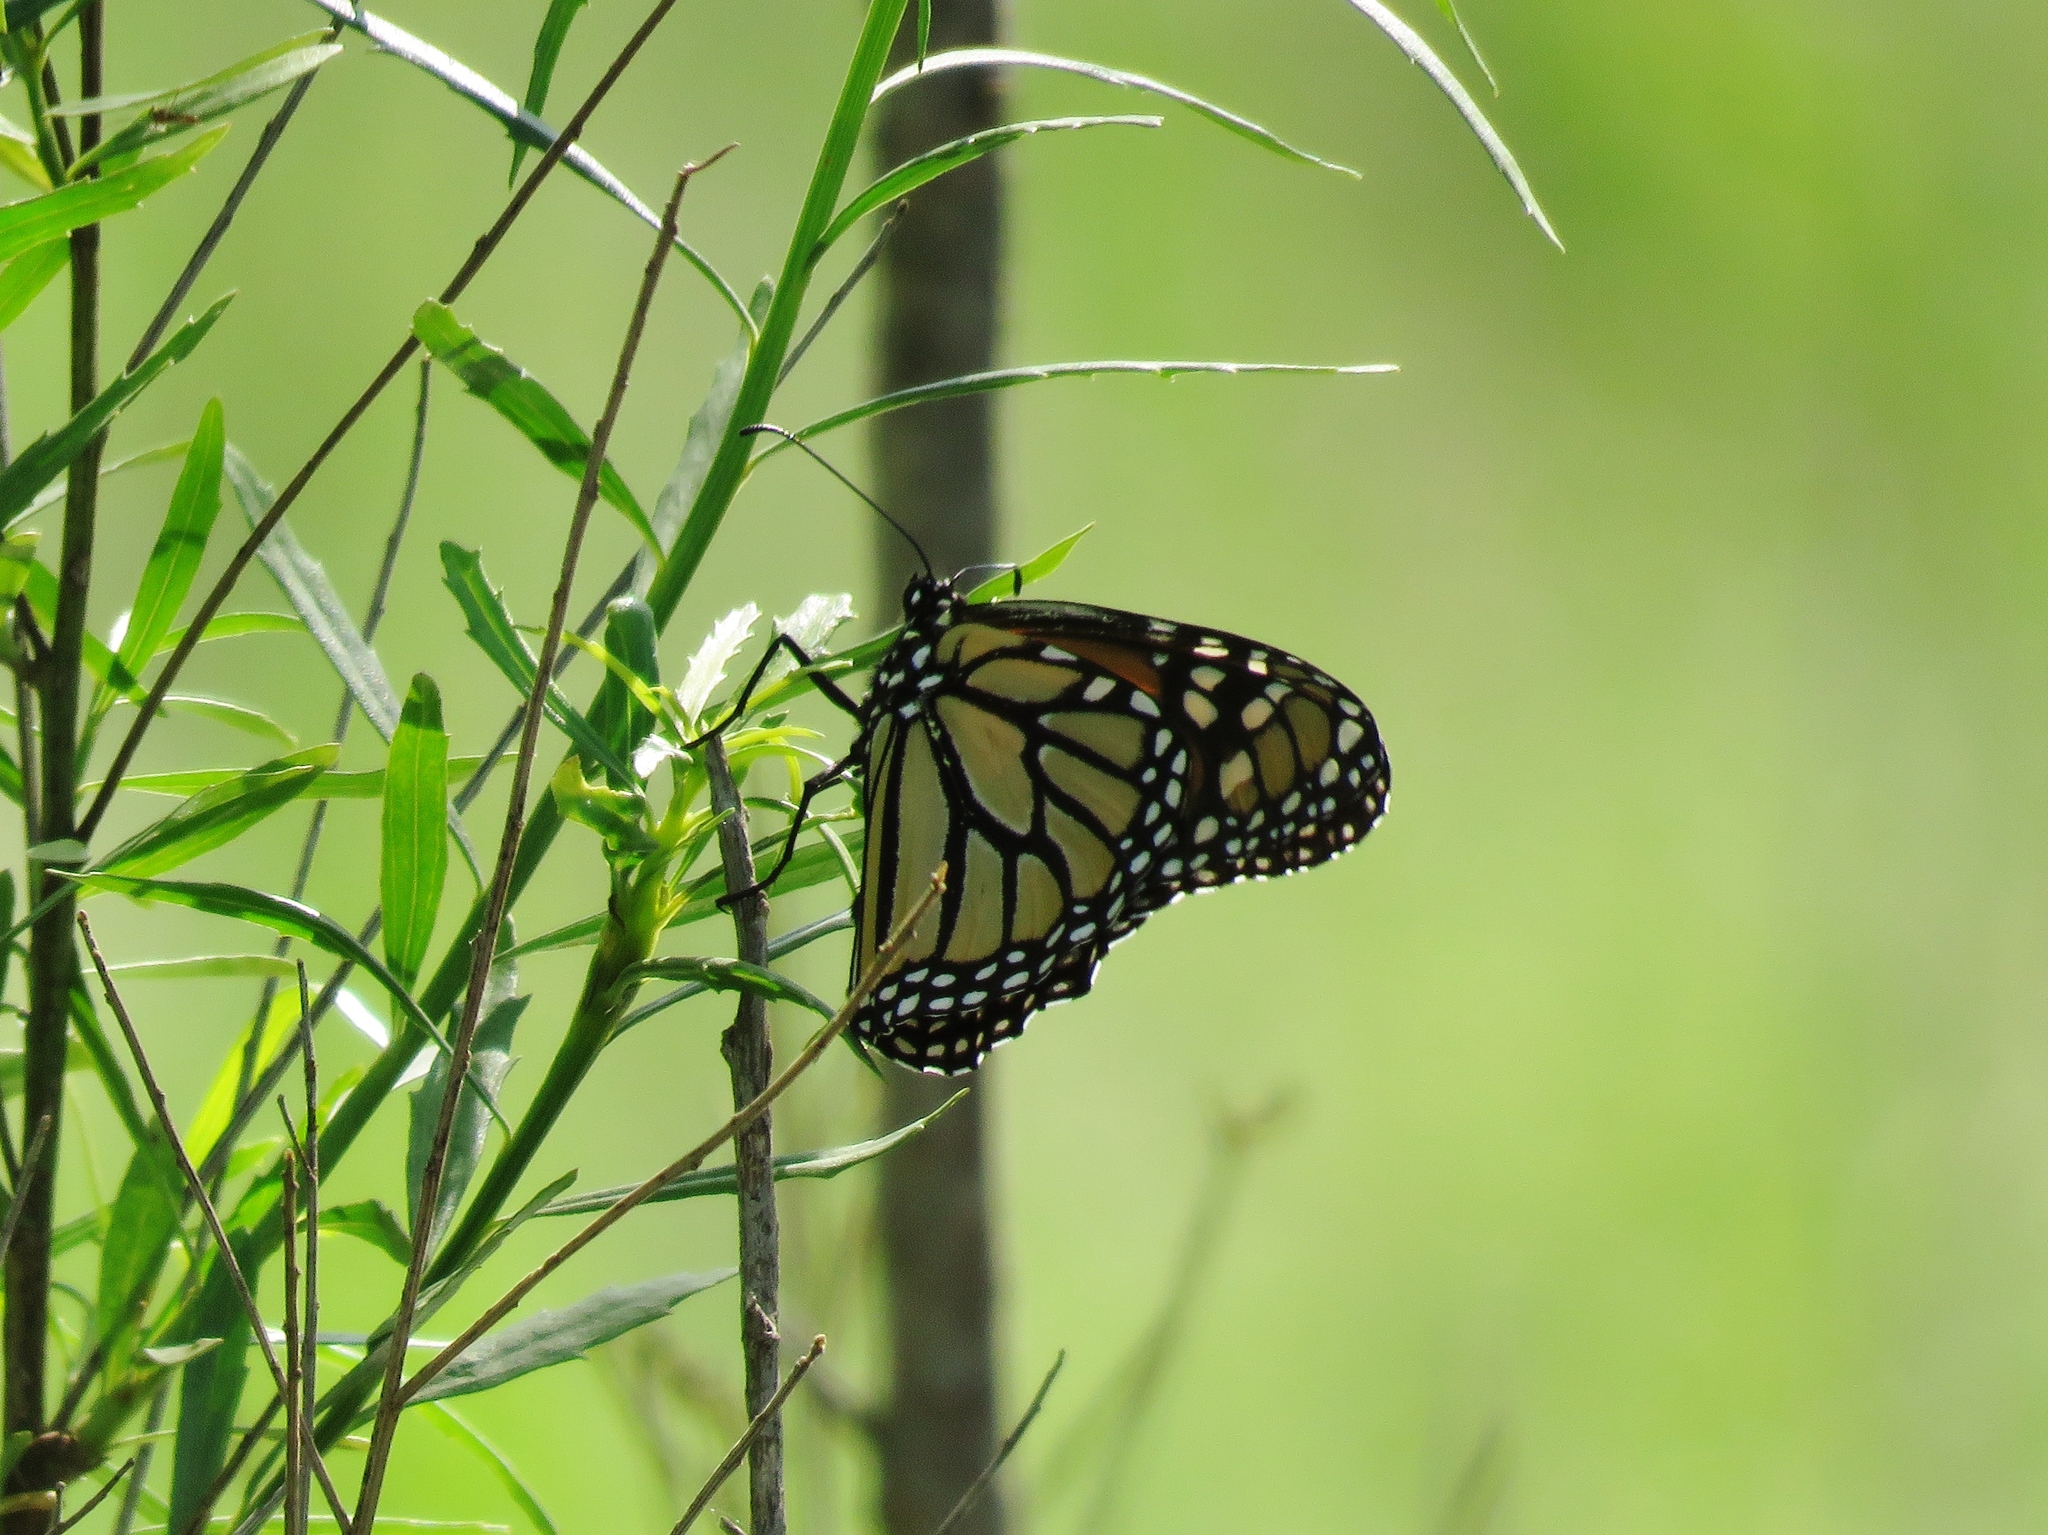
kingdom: Animalia
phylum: Arthropoda
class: Insecta
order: Lepidoptera
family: Nymphalidae
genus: Danaus
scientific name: Danaus plexippus
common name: Monarch
